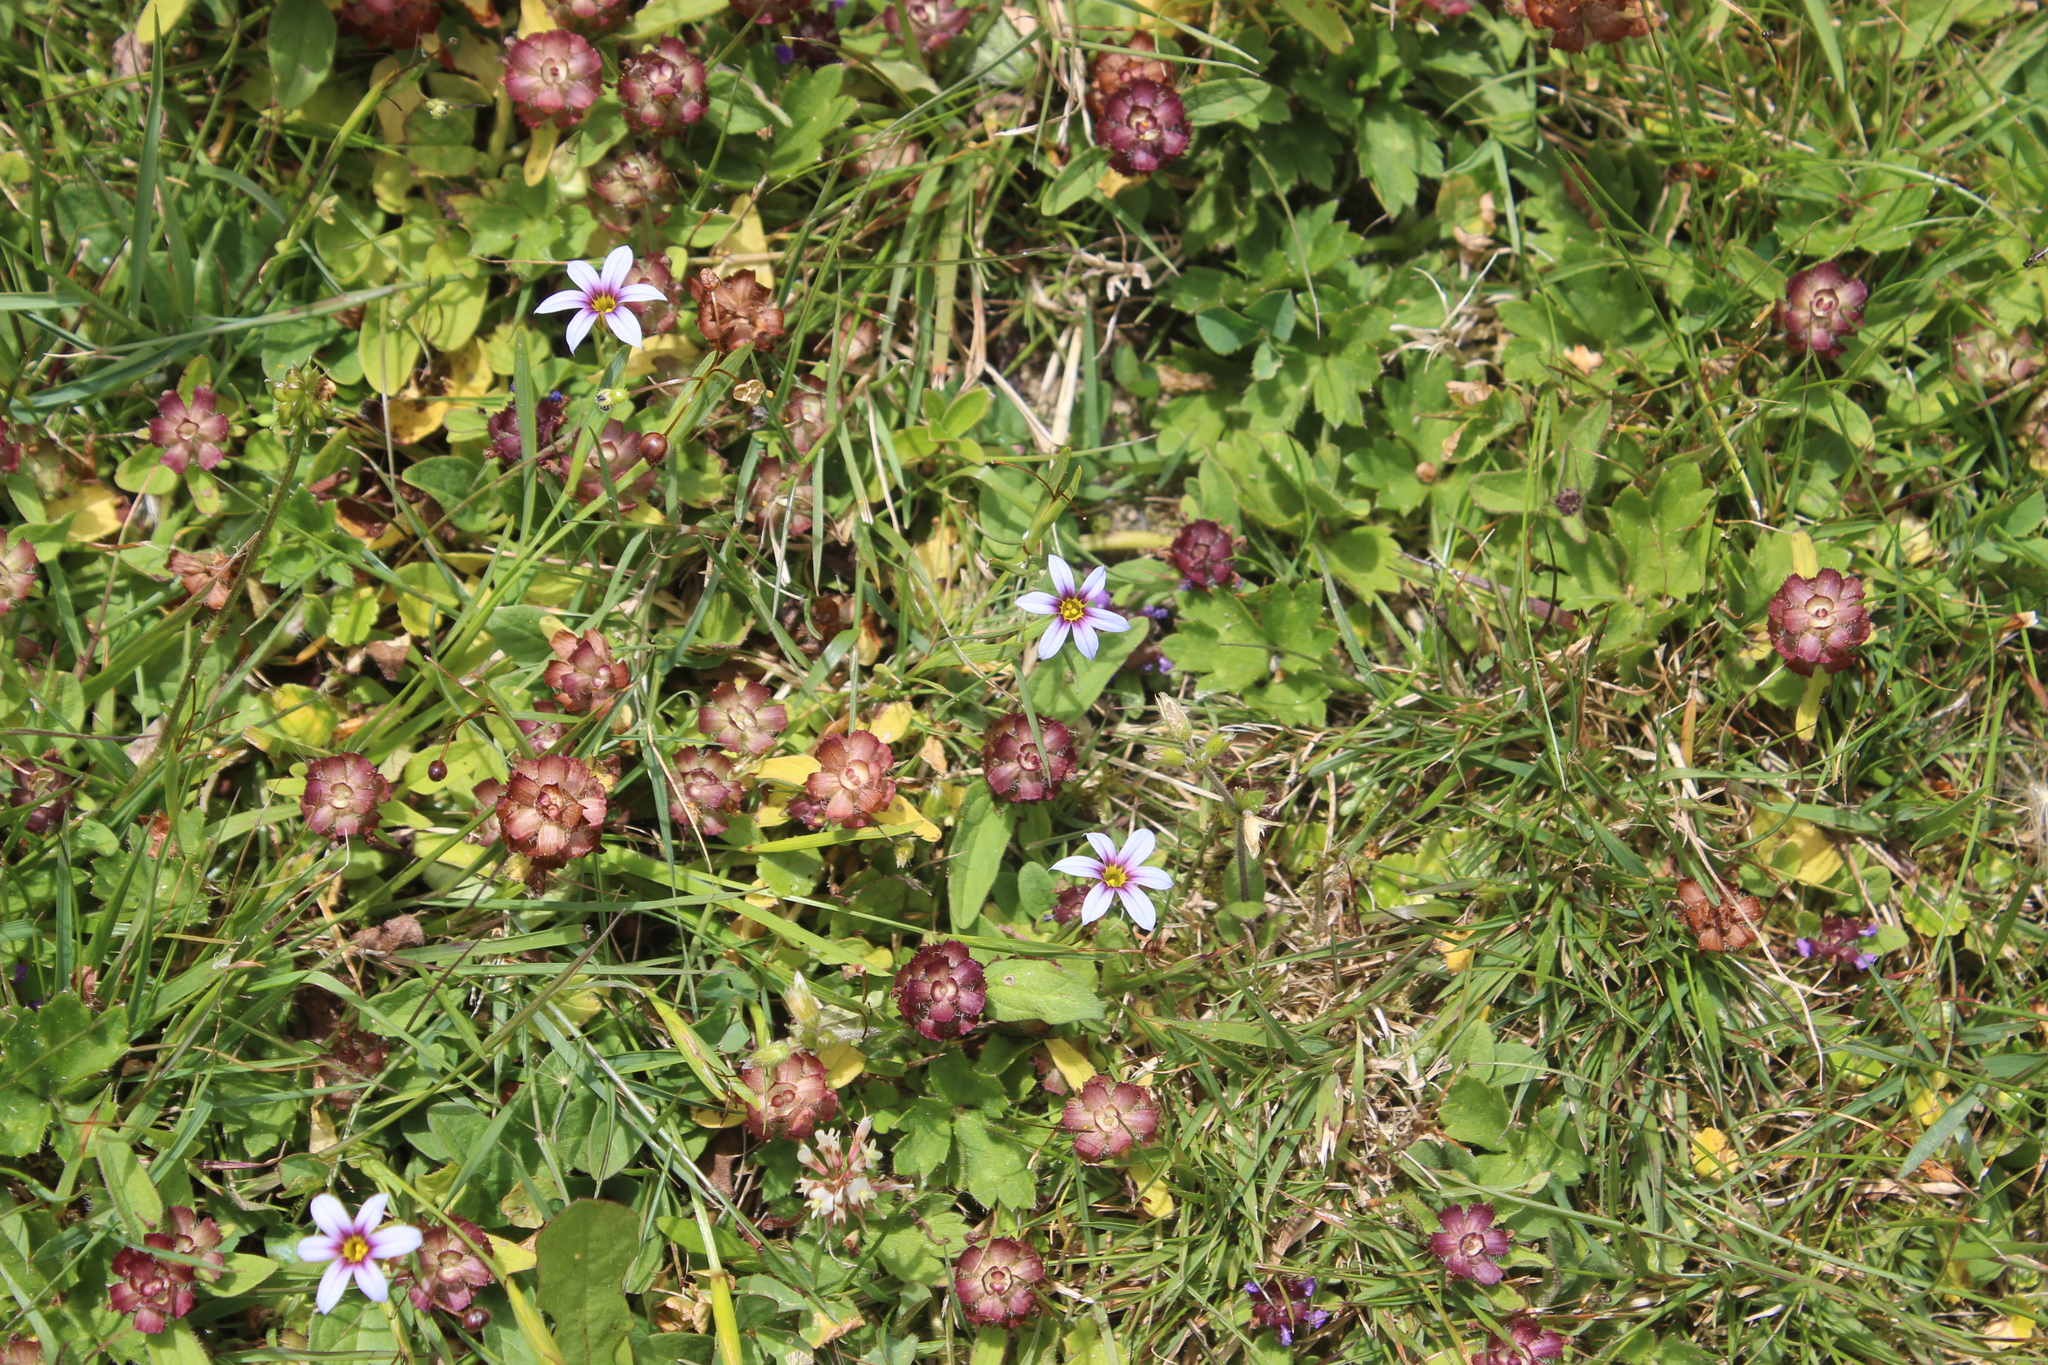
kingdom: Plantae
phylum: Tracheophyta
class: Liliopsida
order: Asparagales
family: Iridaceae
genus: Sisyrinchium
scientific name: Sisyrinchium micranthum
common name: Bermuda pigroot
